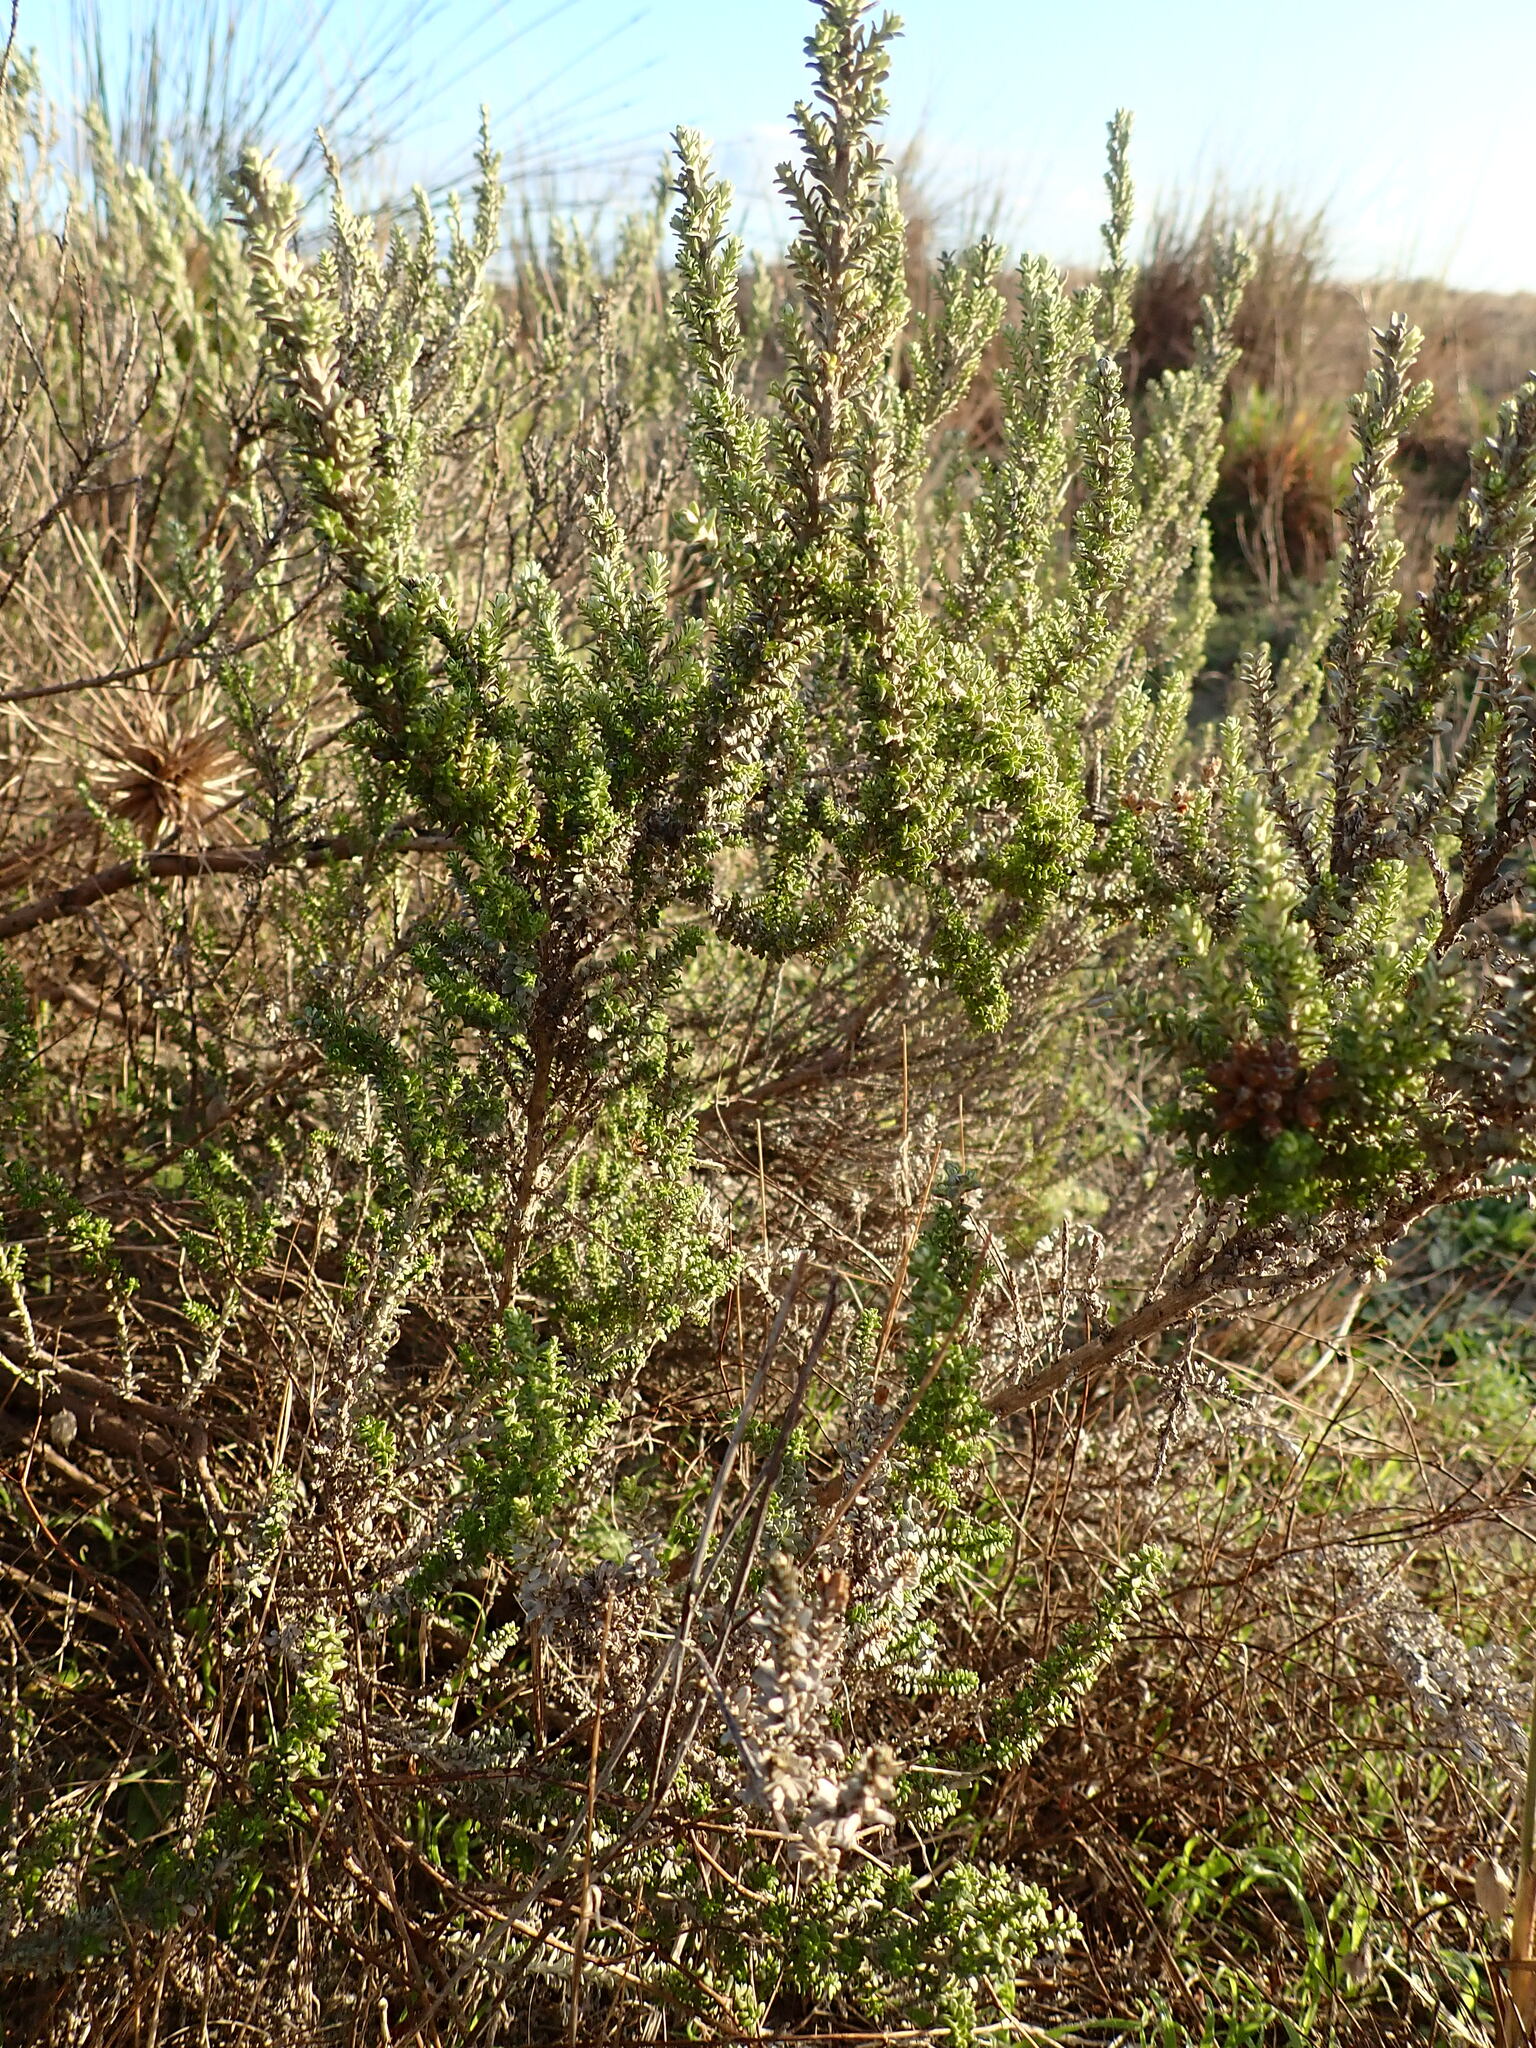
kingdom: Plantae
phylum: Tracheophyta
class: Magnoliopsida
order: Asterales
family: Asteraceae
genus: Ozothamnus
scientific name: Ozothamnus leptophyllus
